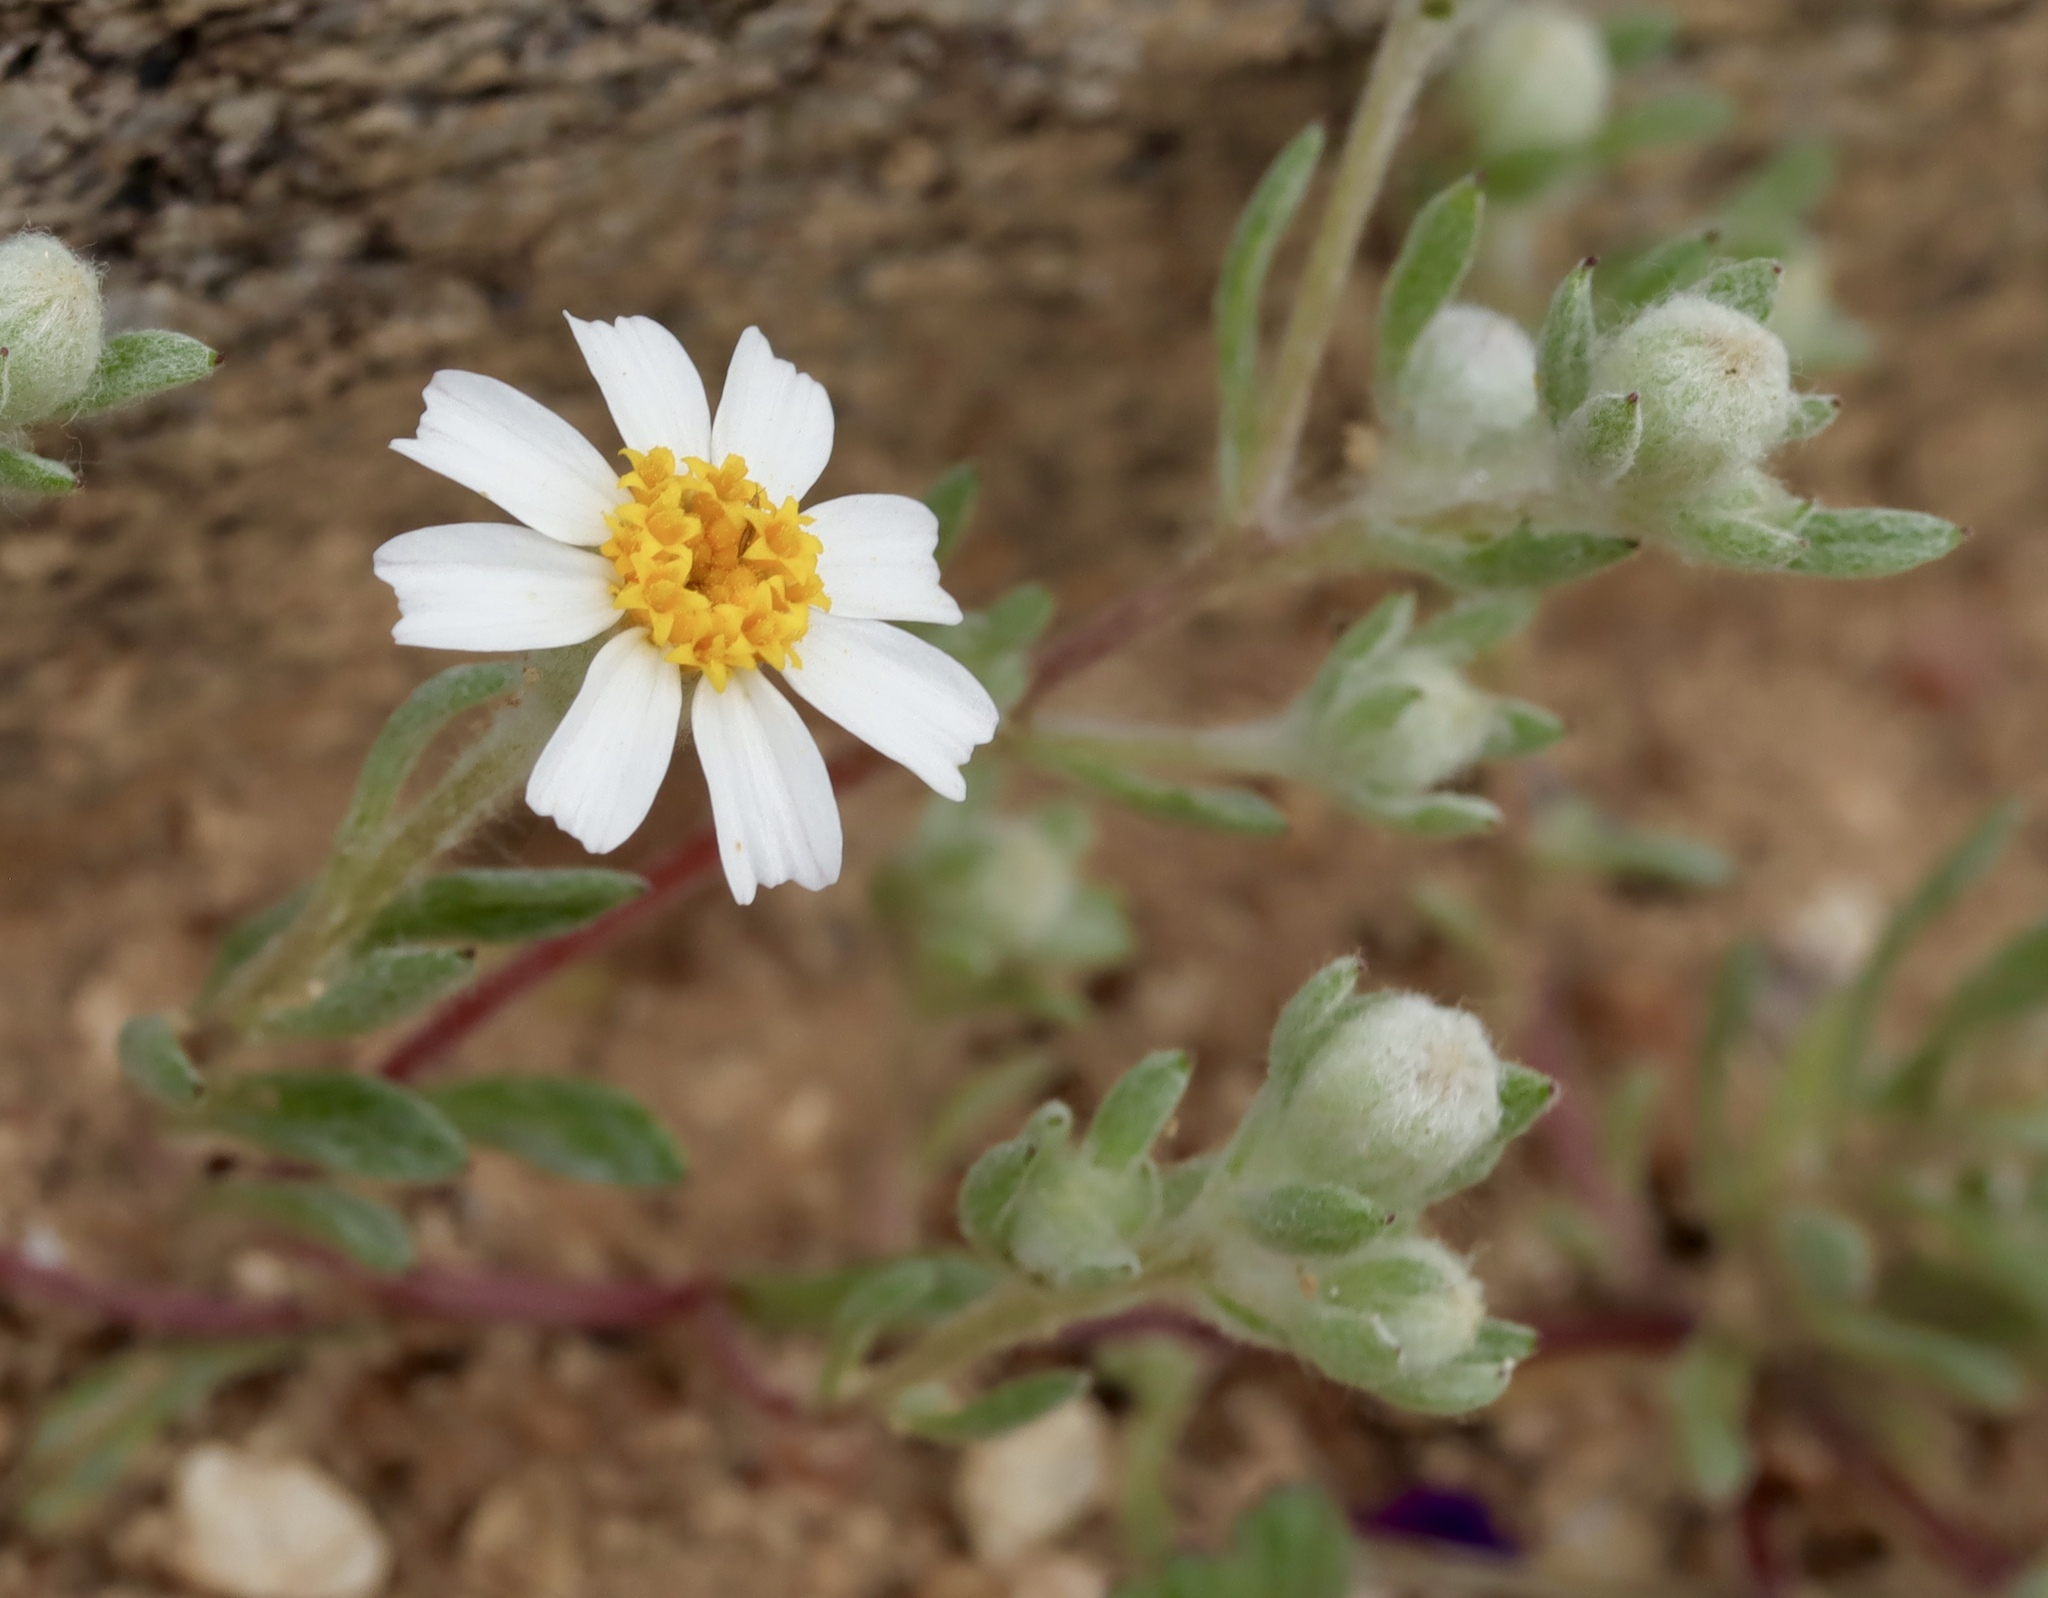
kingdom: Plantae
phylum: Tracheophyta
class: Magnoliopsida
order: Asterales
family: Asteraceae
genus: Eriophyllum
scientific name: Eriophyllum lanosum
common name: White easter-bonnets
